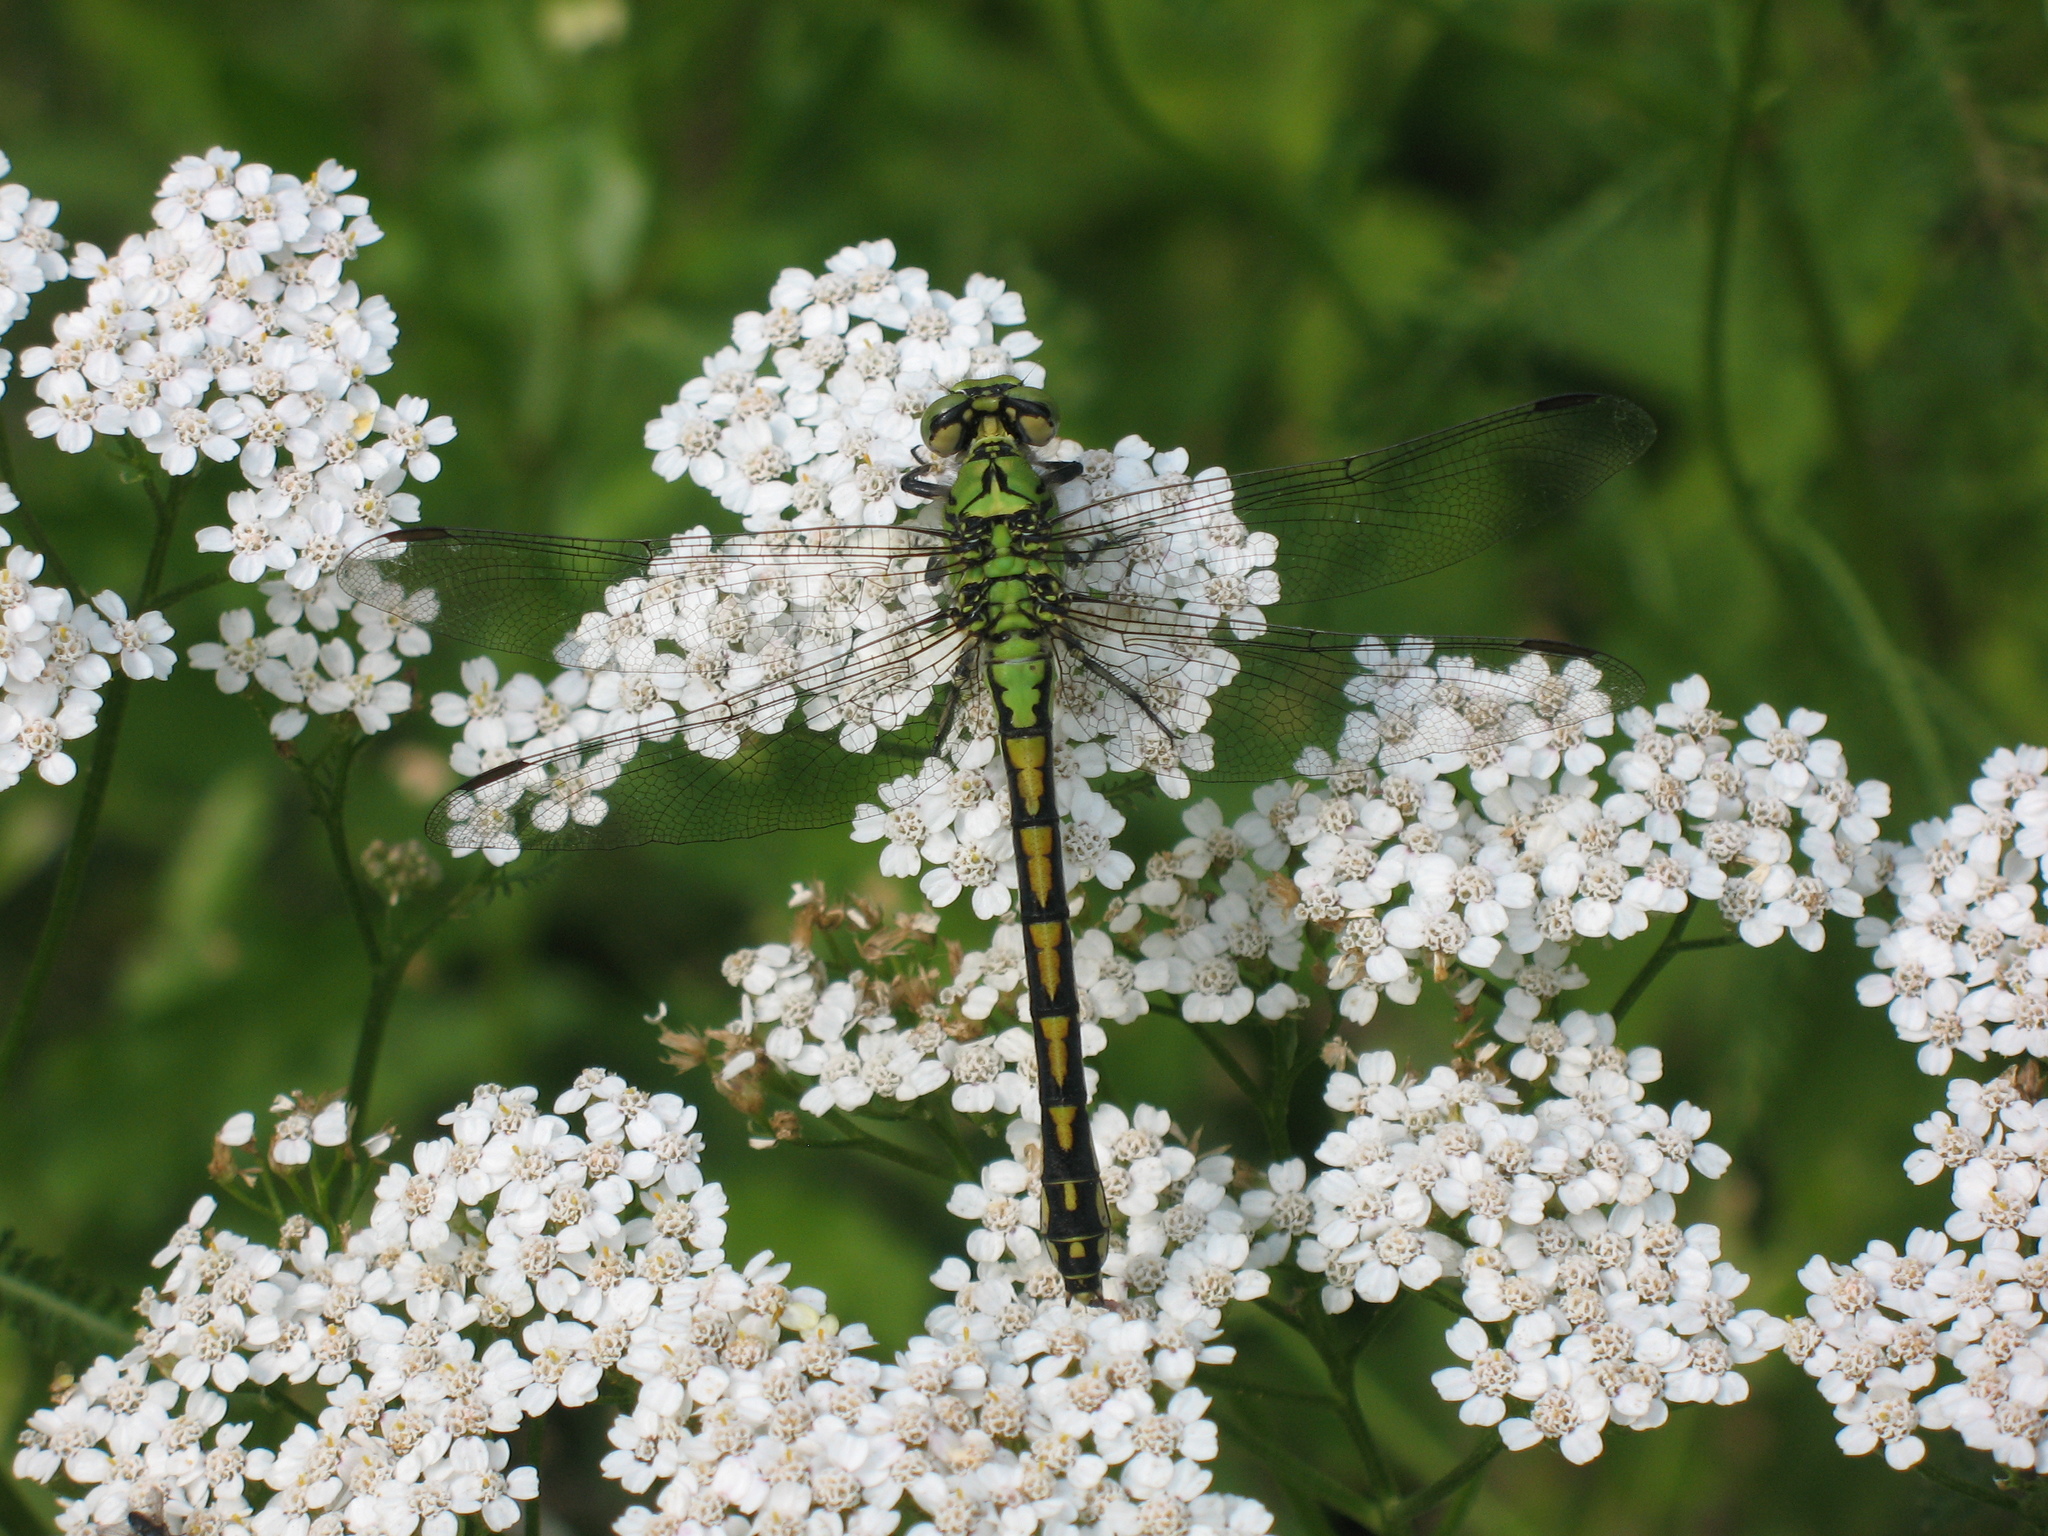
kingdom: Animalia
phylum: Arthropoda
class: Insecta
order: Odonata
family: Gomphidae
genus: Ophiogomphus
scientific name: Ophiogomphus cecilia
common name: Green snaketail
